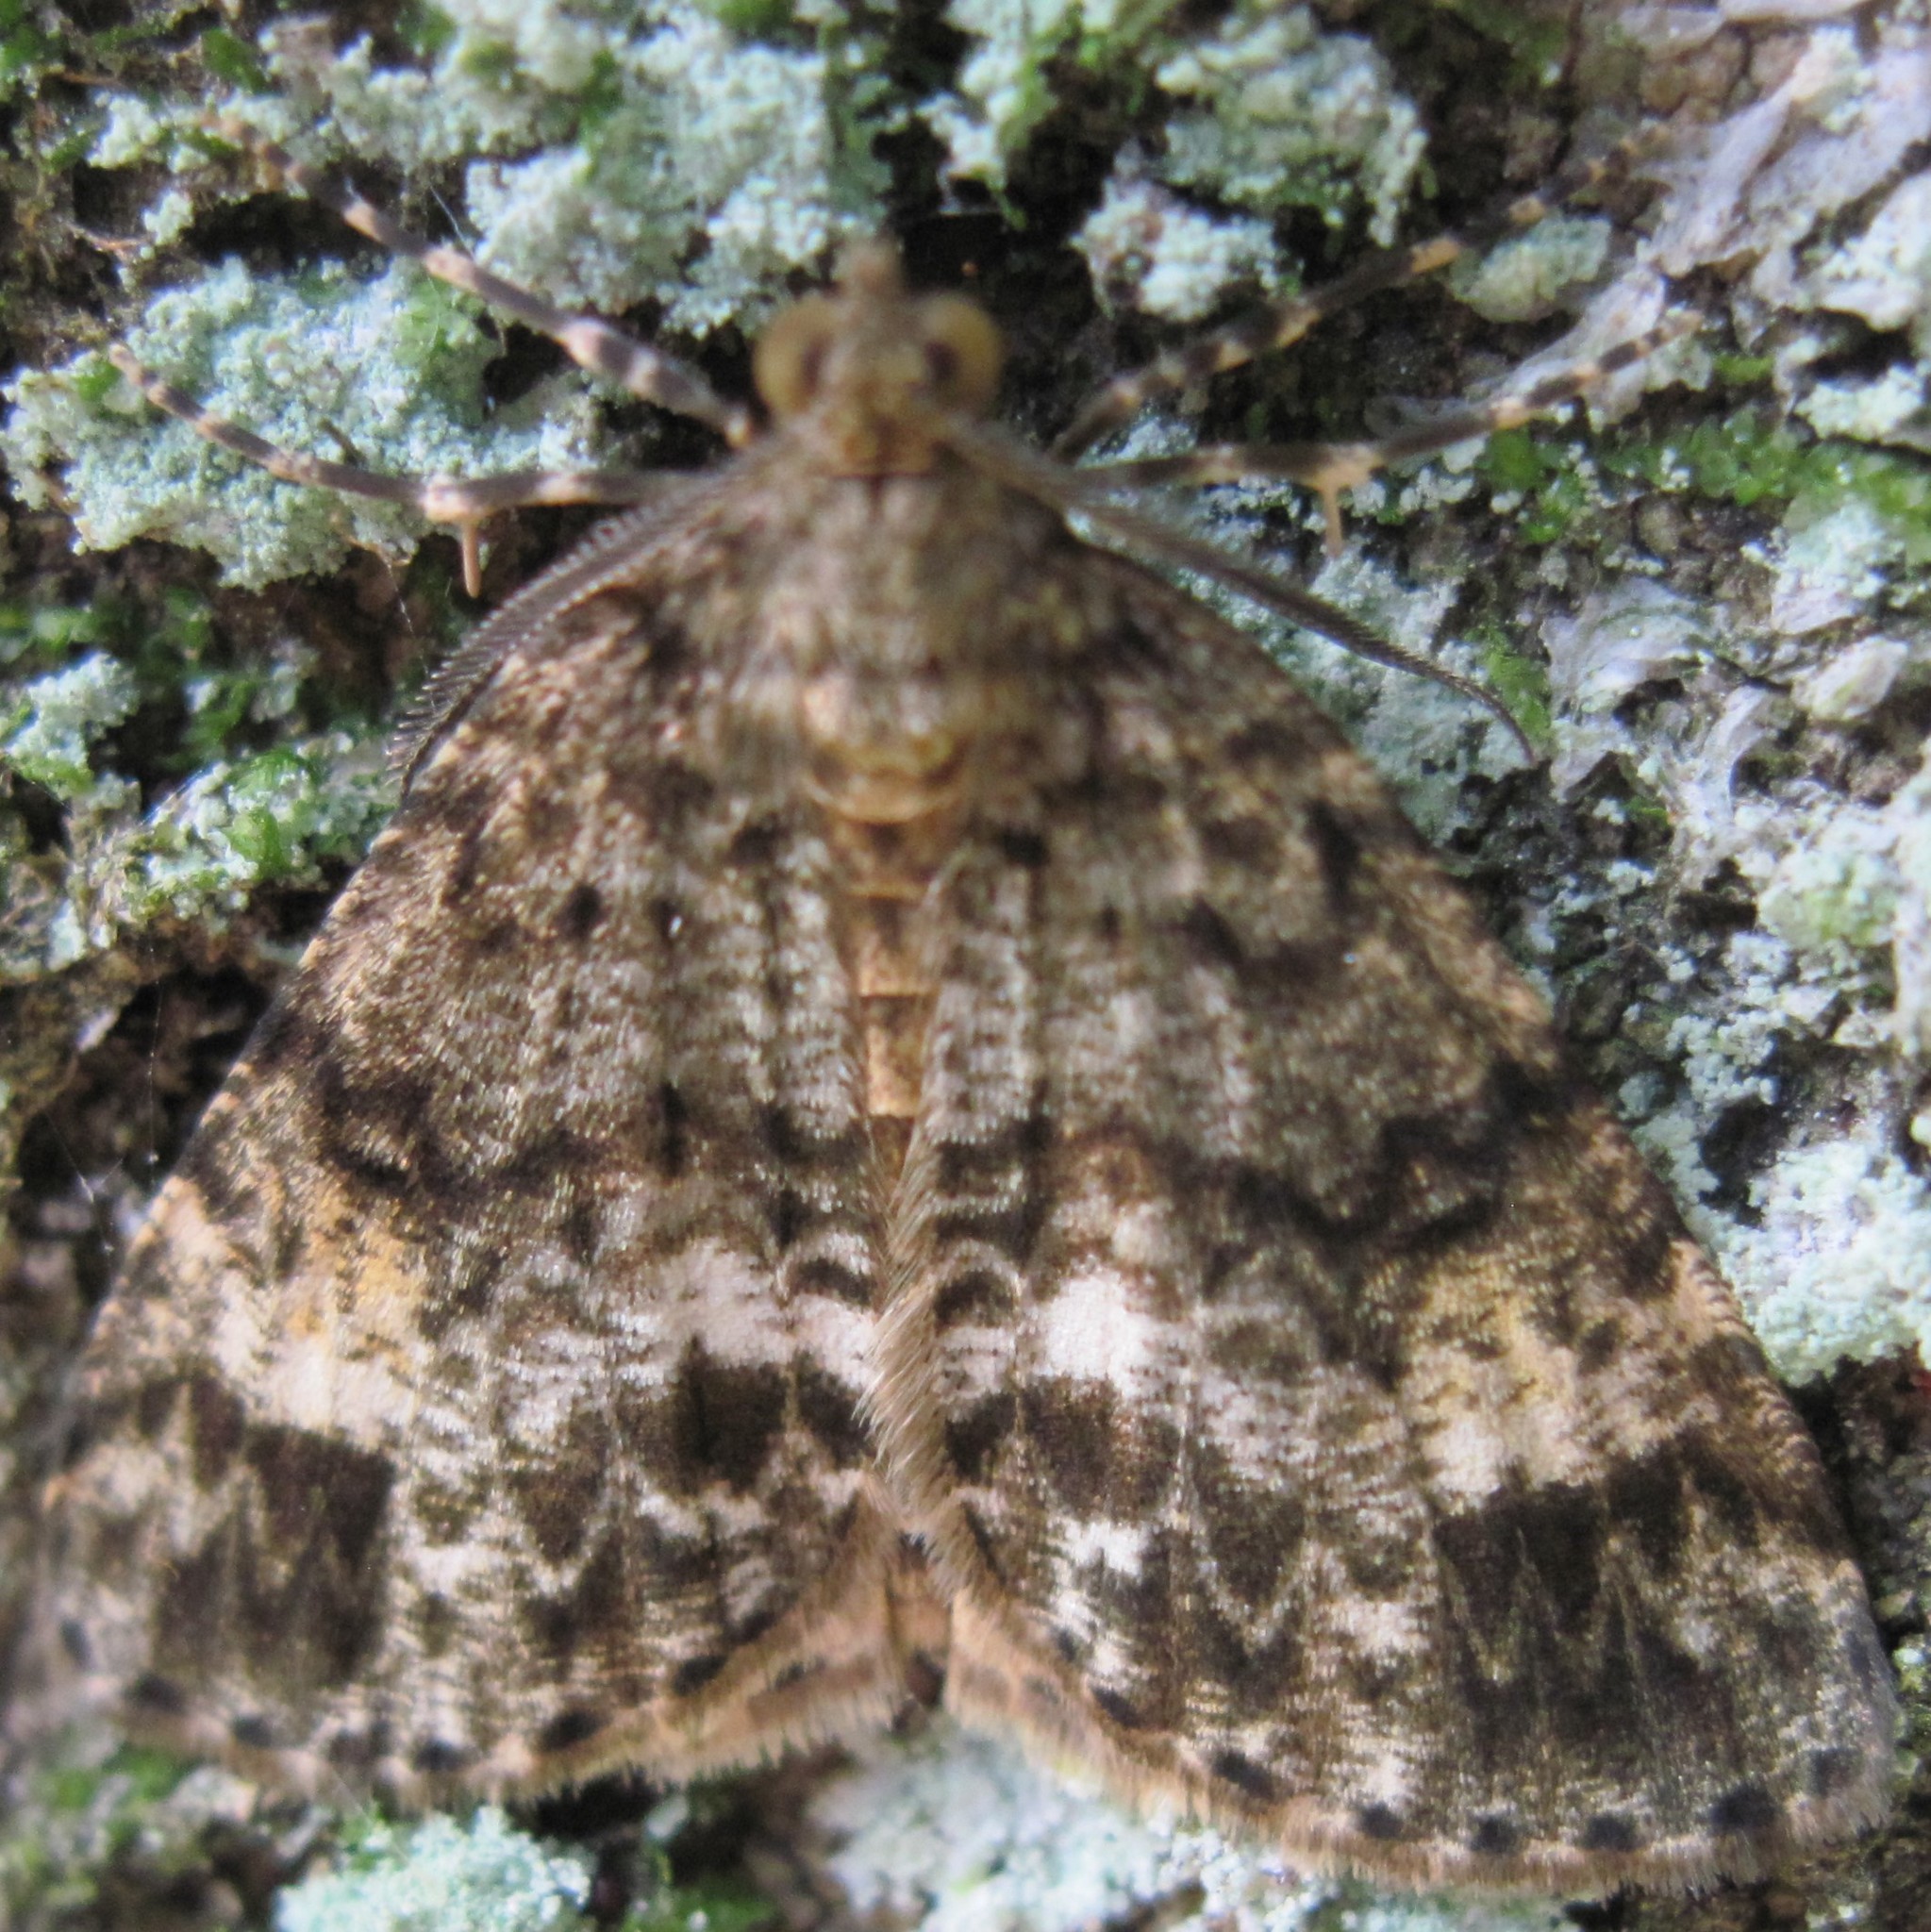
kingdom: Animalia
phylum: Arthropoda
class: Insecta
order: Lepidoptera
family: Geometridae
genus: Pseudocoremia
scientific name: Pseudocoremia indistincta
